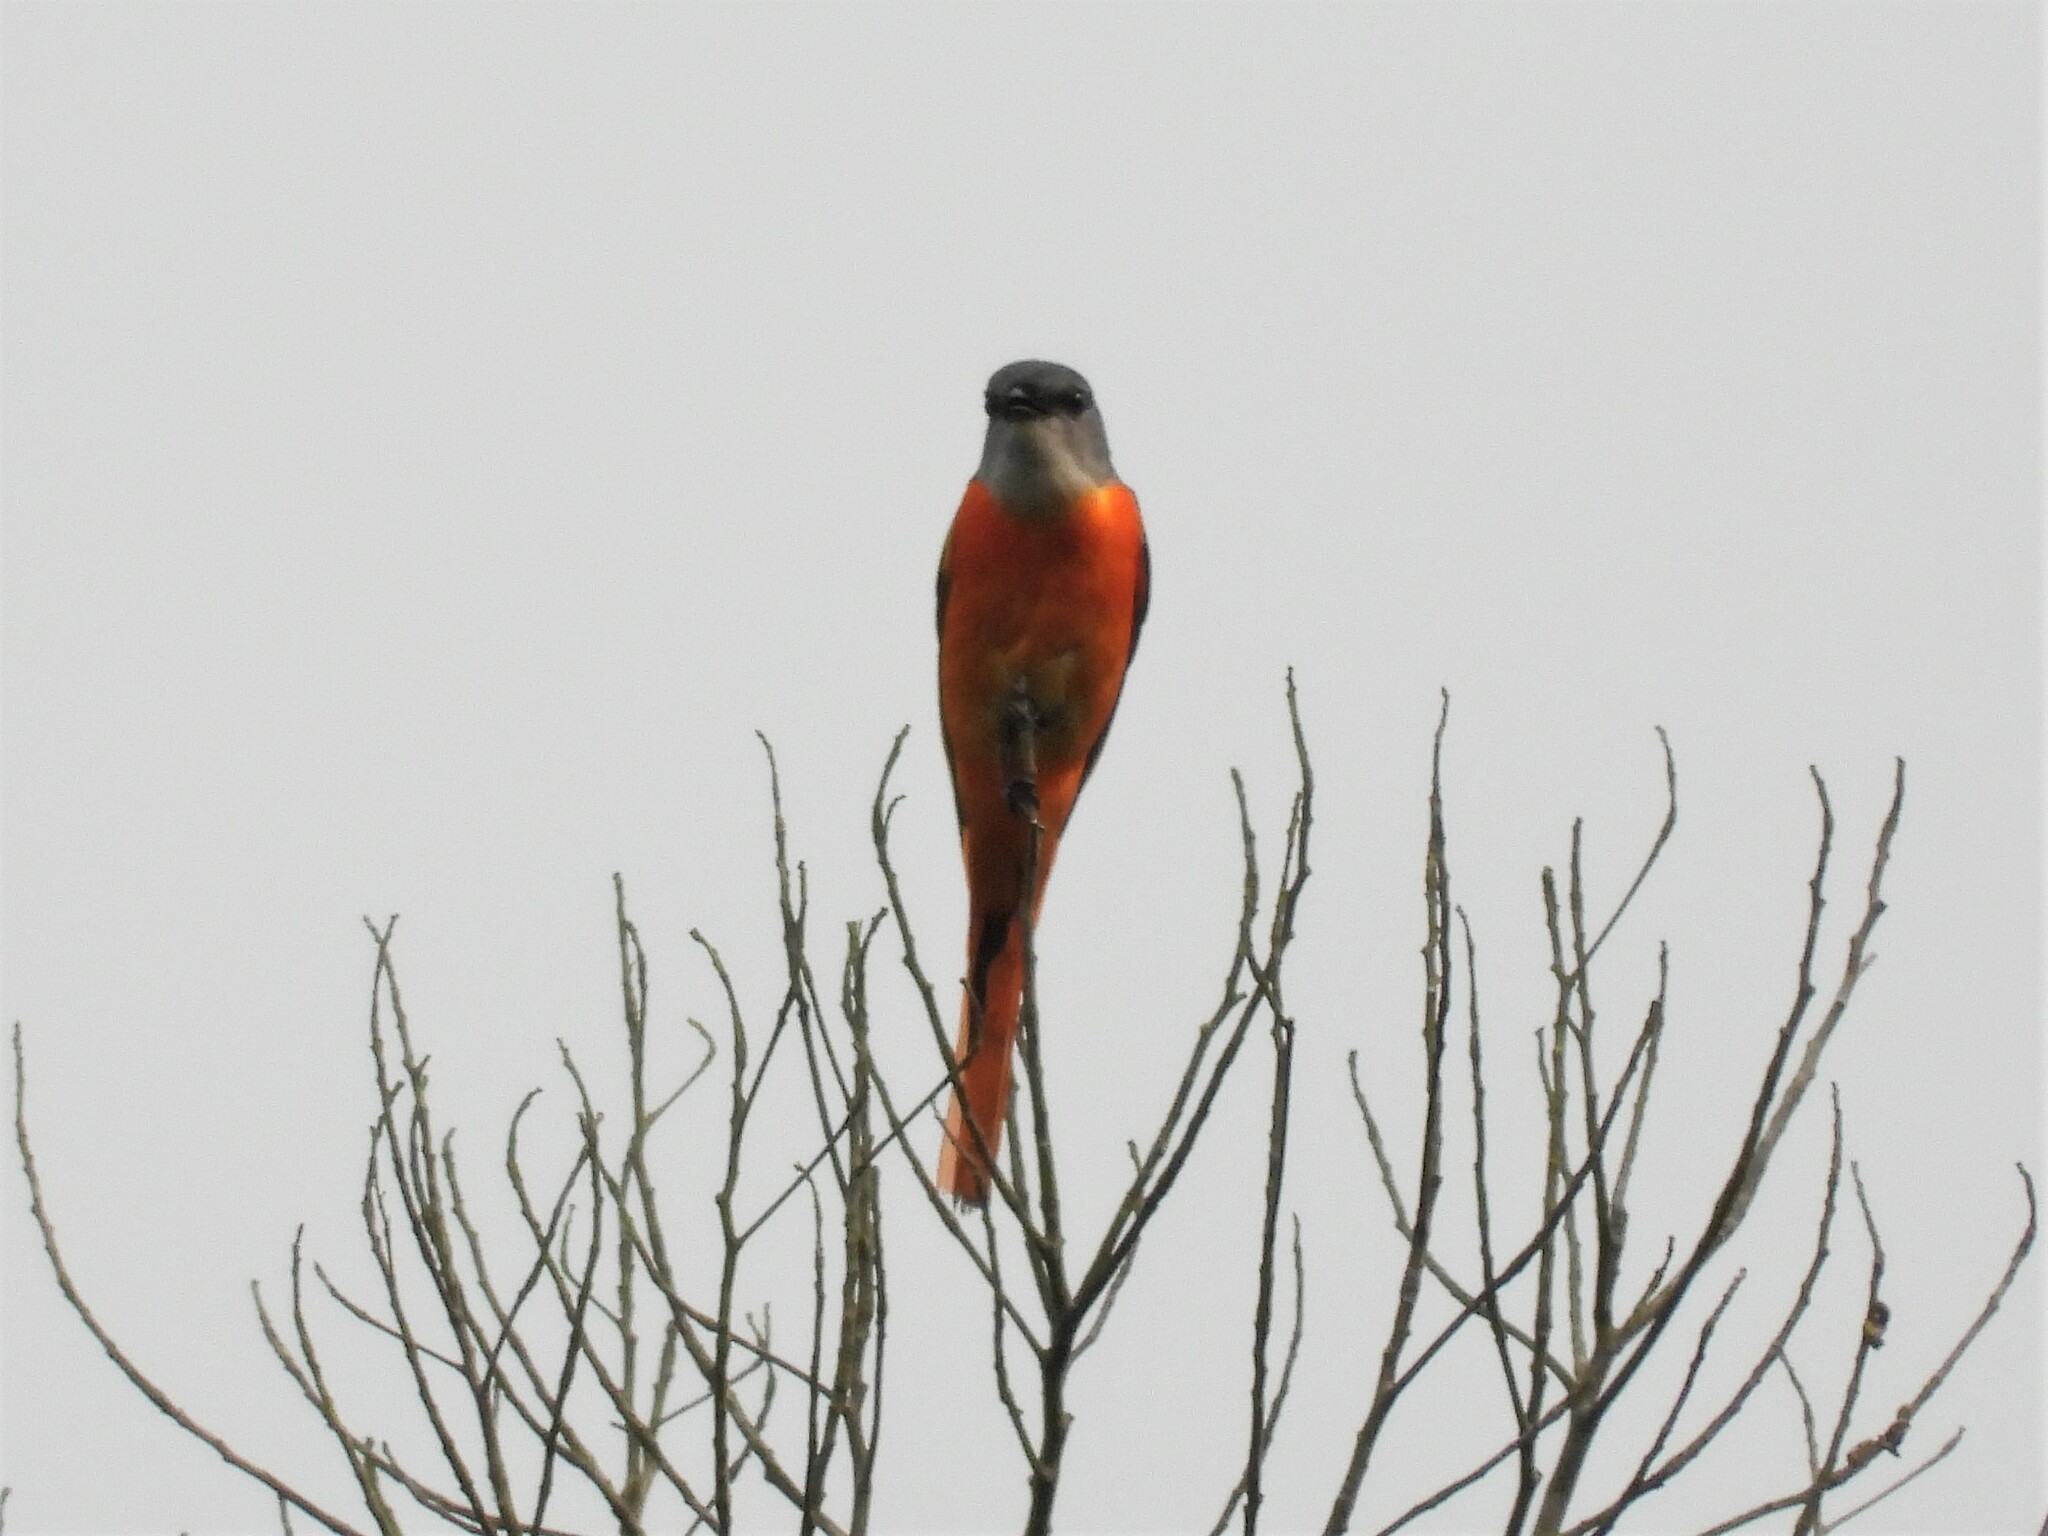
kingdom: Animalia
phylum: Chordata
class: Aves
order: Passeriformes
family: Campephagidae
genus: Pericrocotus
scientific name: Pericrocotus solaris
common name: Grey-chinned minivet
